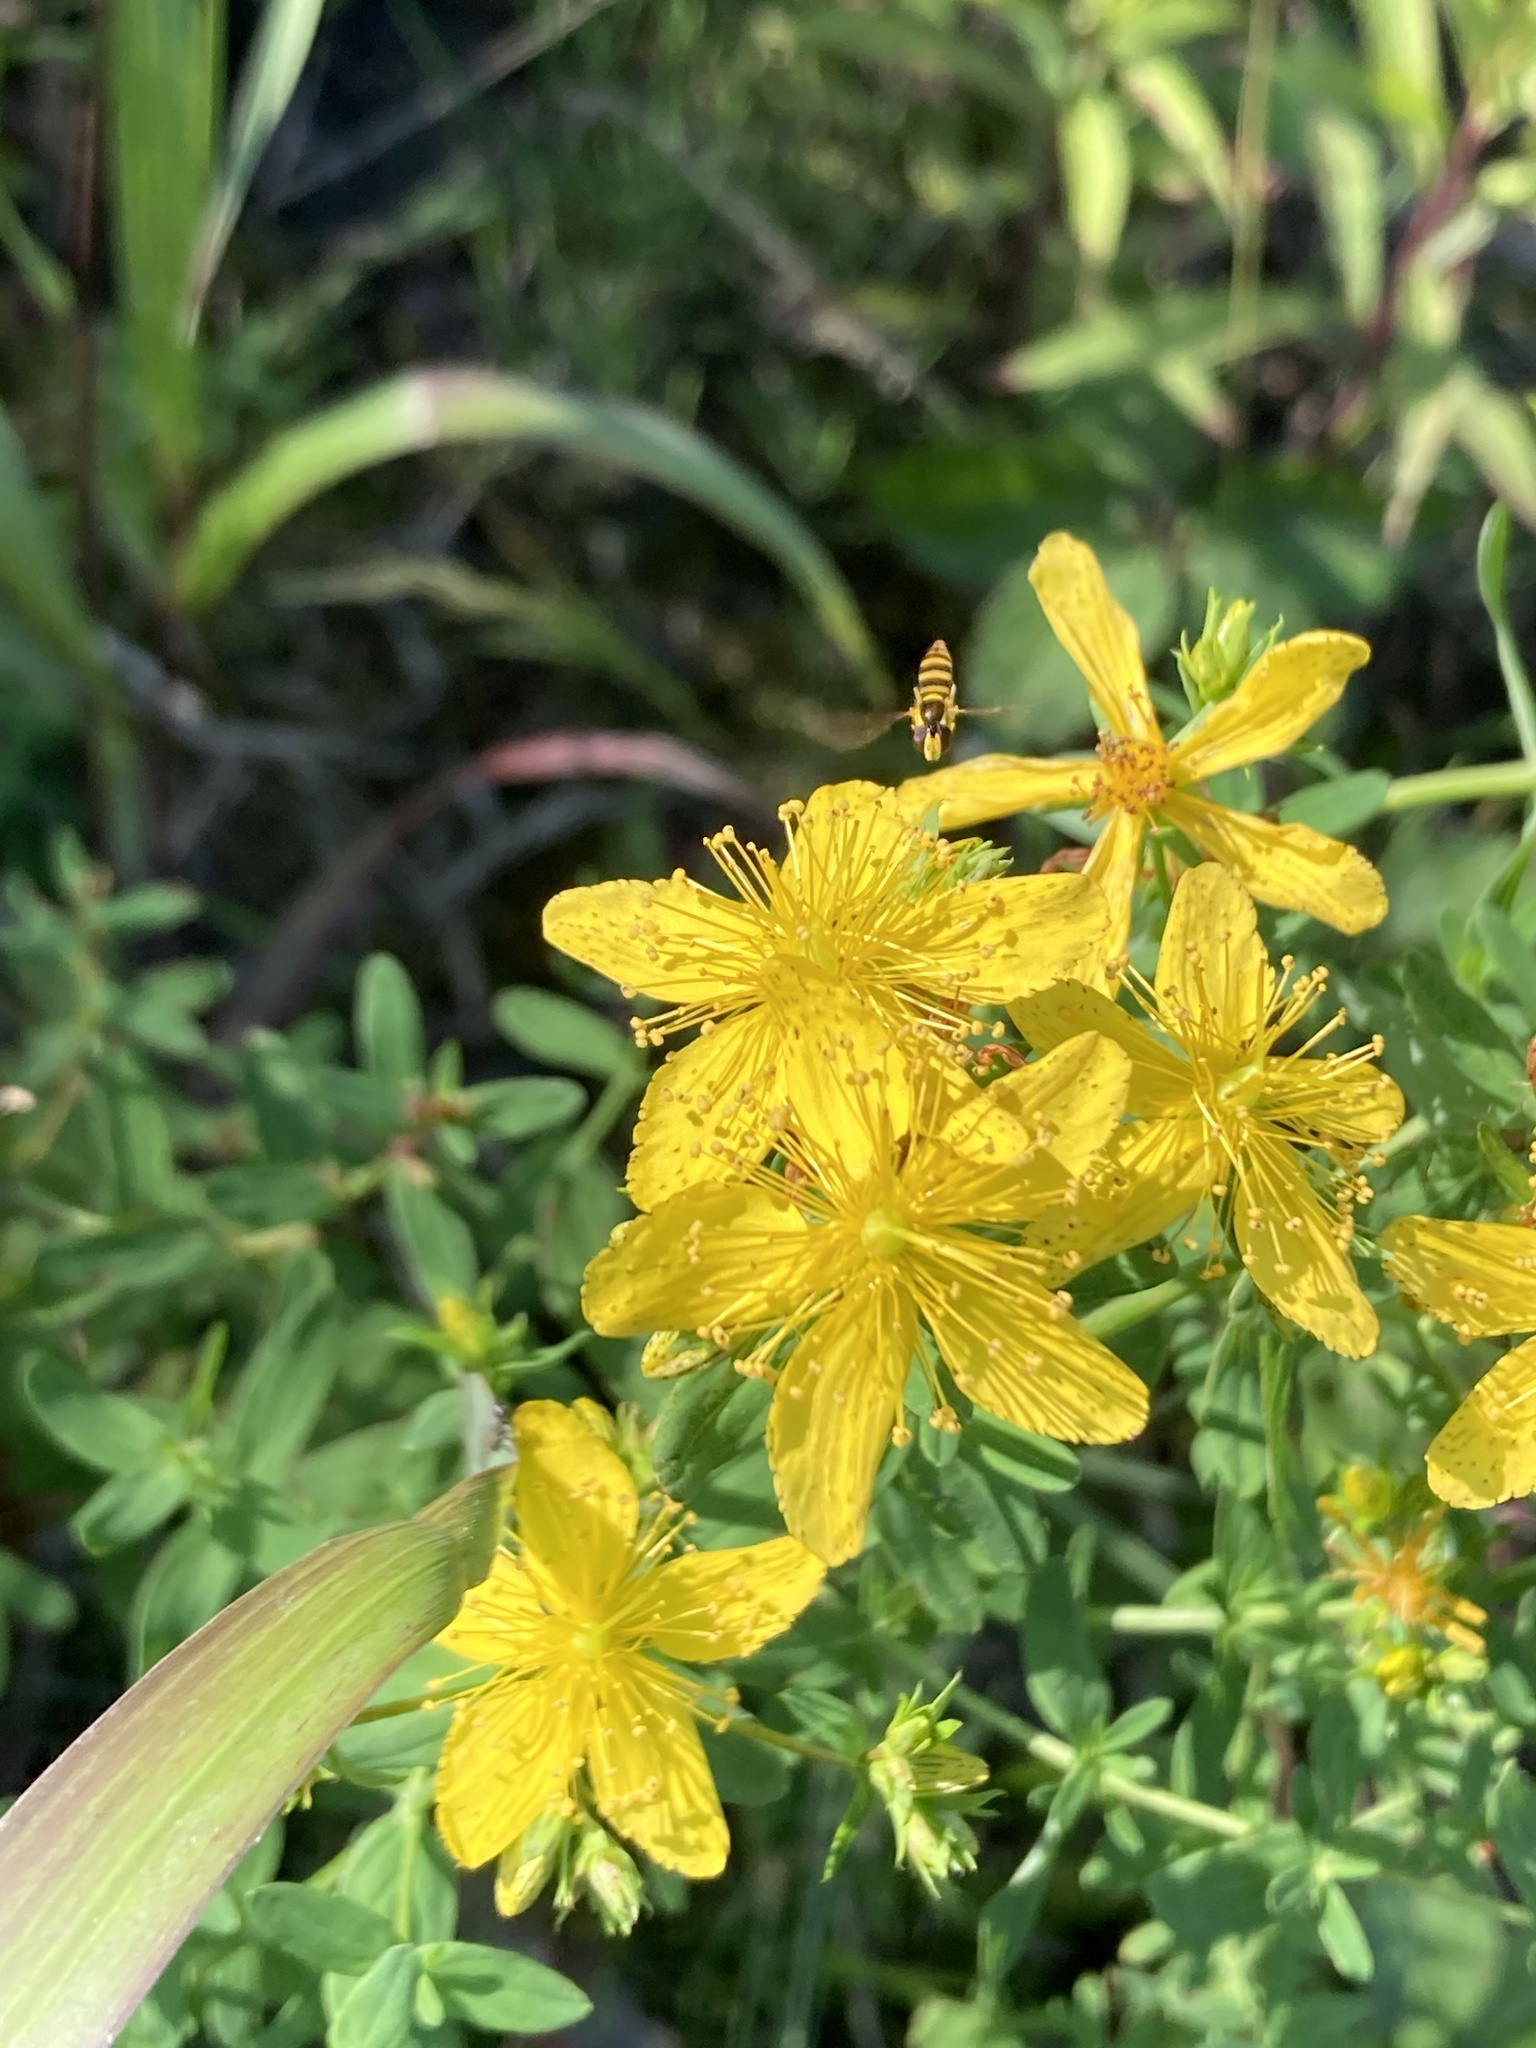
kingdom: Plantae
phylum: Tracheophyta
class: Magnoliopsida
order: Malpighiales
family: Hypericaceae
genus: Hypericum
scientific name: Hypericum perforatum
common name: Common st. johnswort
